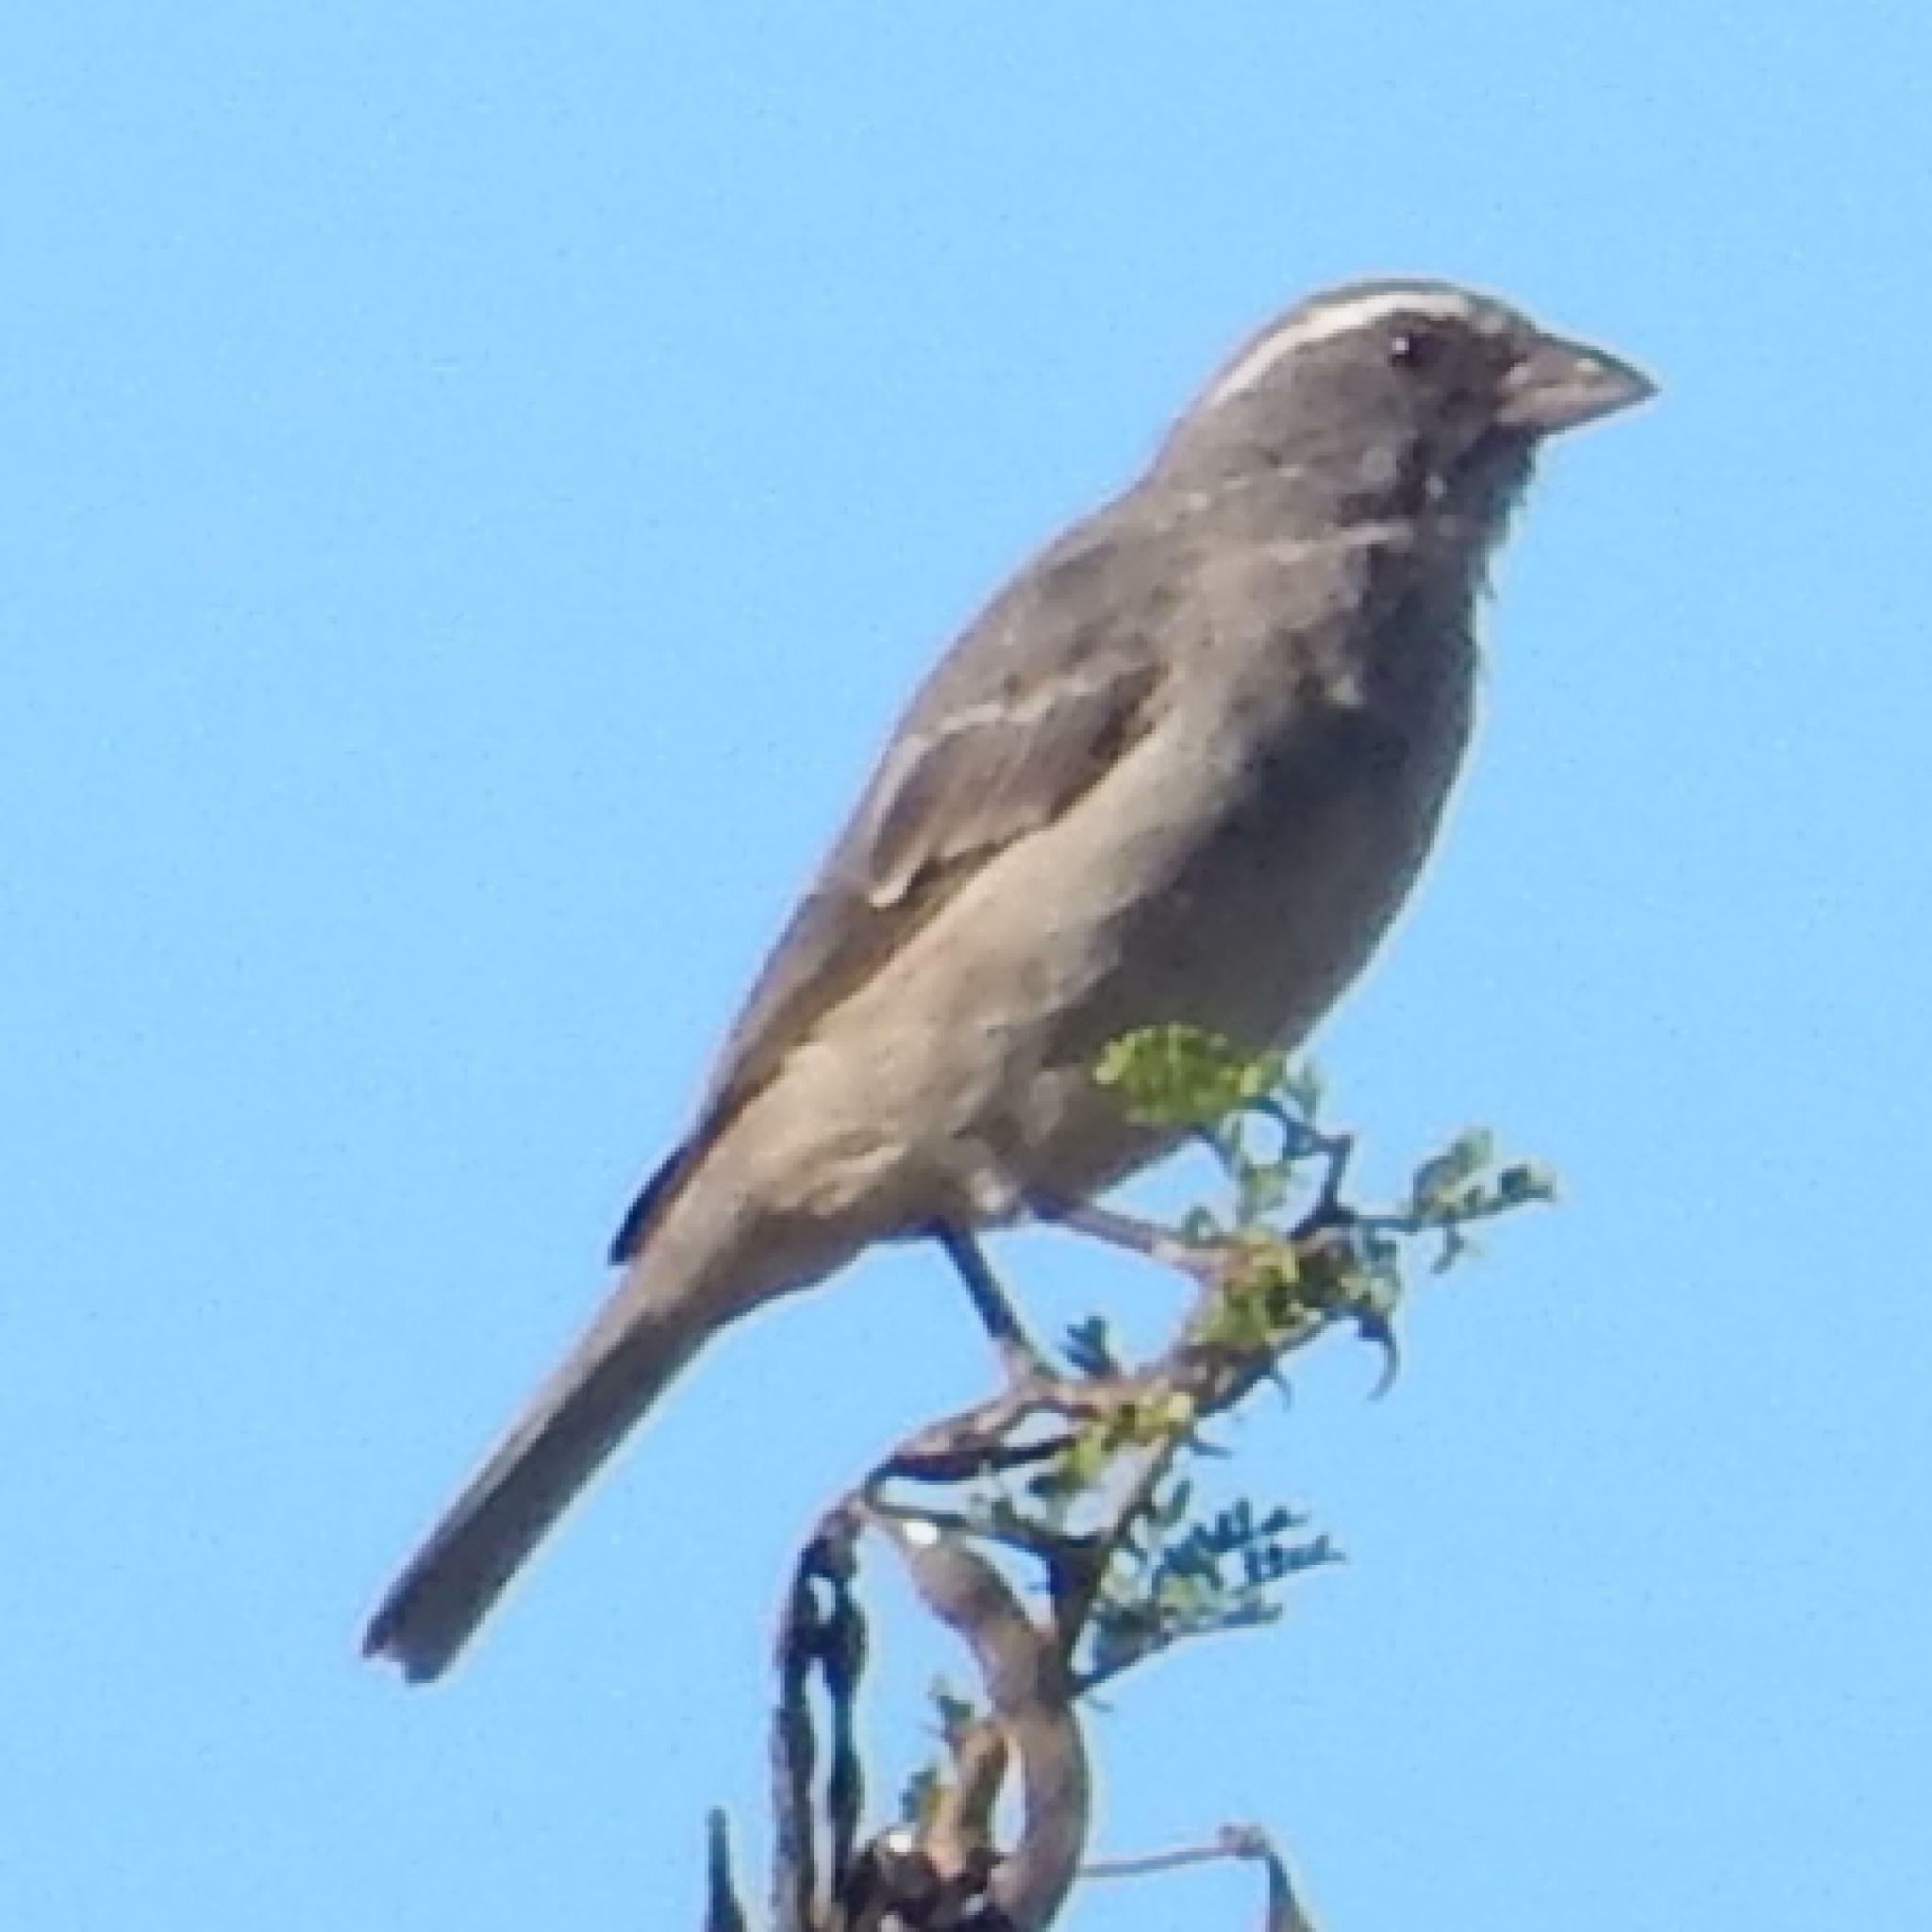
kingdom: Animalia
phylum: Chordata
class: Aves
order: Passeriformes
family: Fringillidae
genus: Crithagra
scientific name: Crithagra gularis
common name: Streaky-headed seedeater
